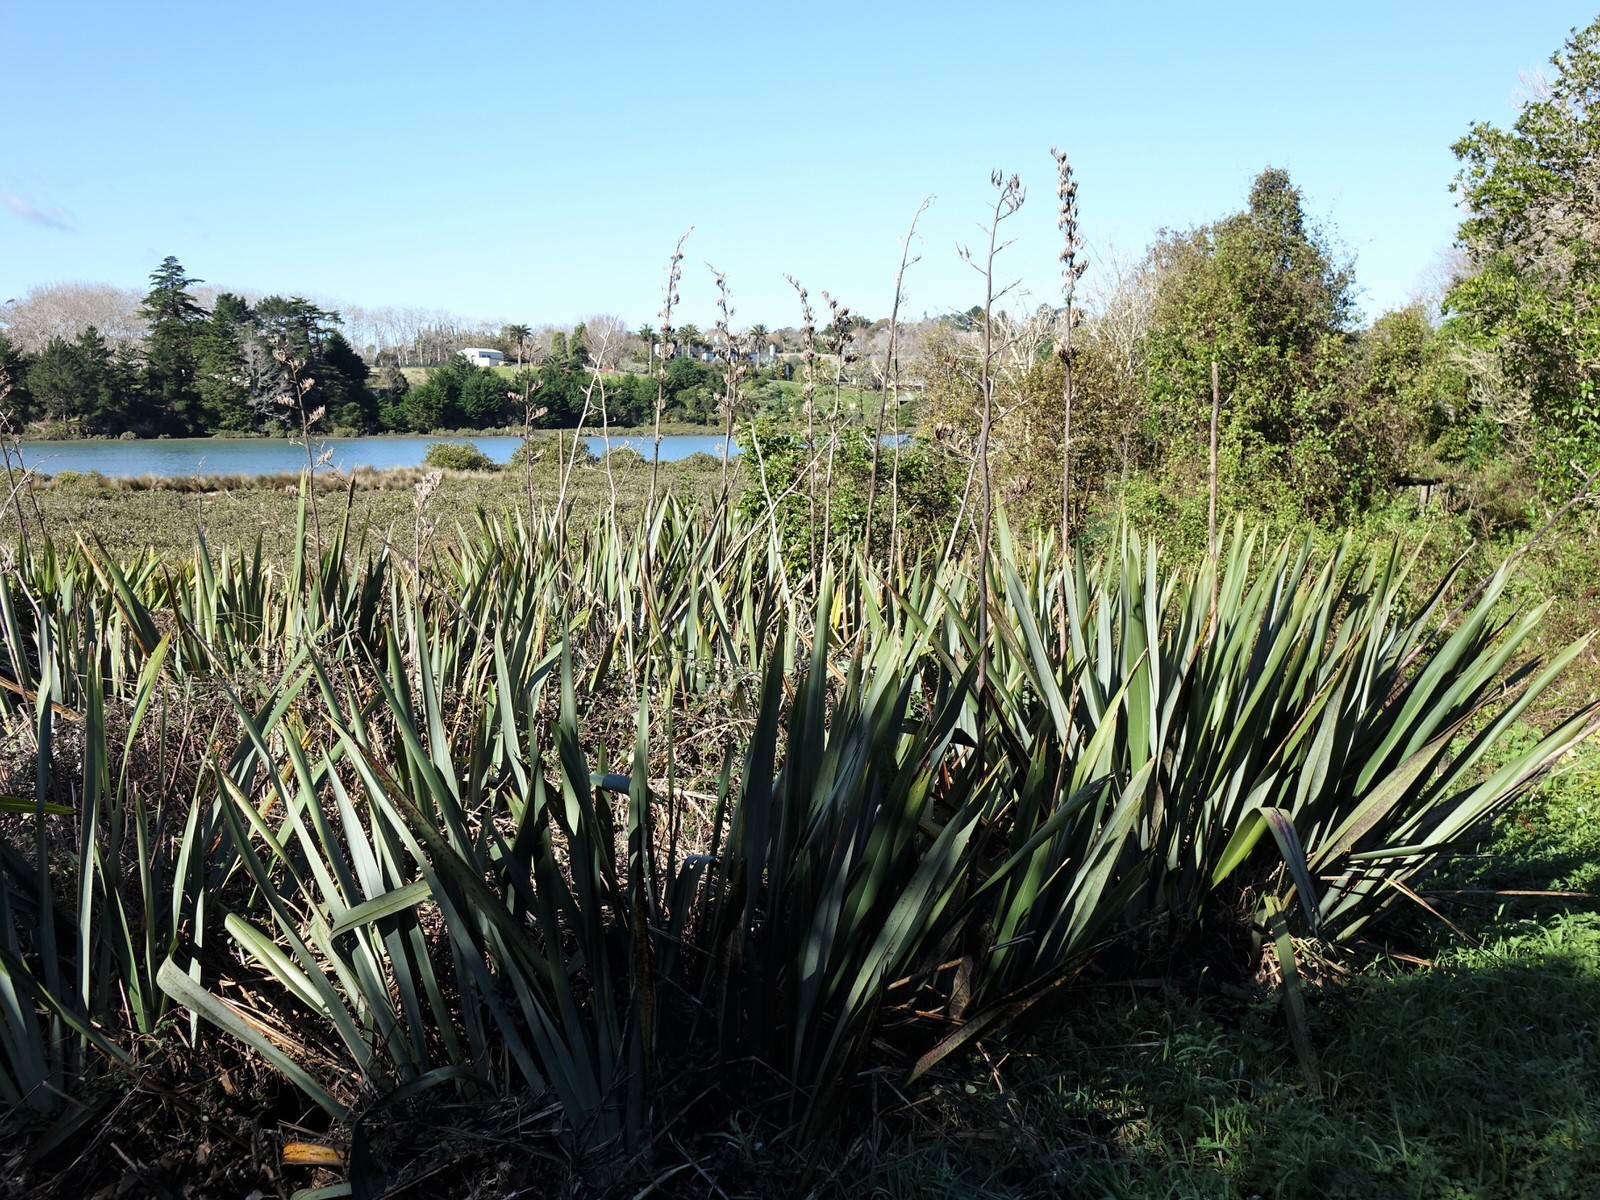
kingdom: Plantae
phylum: Tracheophyta
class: Liliopsida
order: Asparagales
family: Asphodelaceae
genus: Phormium
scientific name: Phormium tenax
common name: New zealand flax
